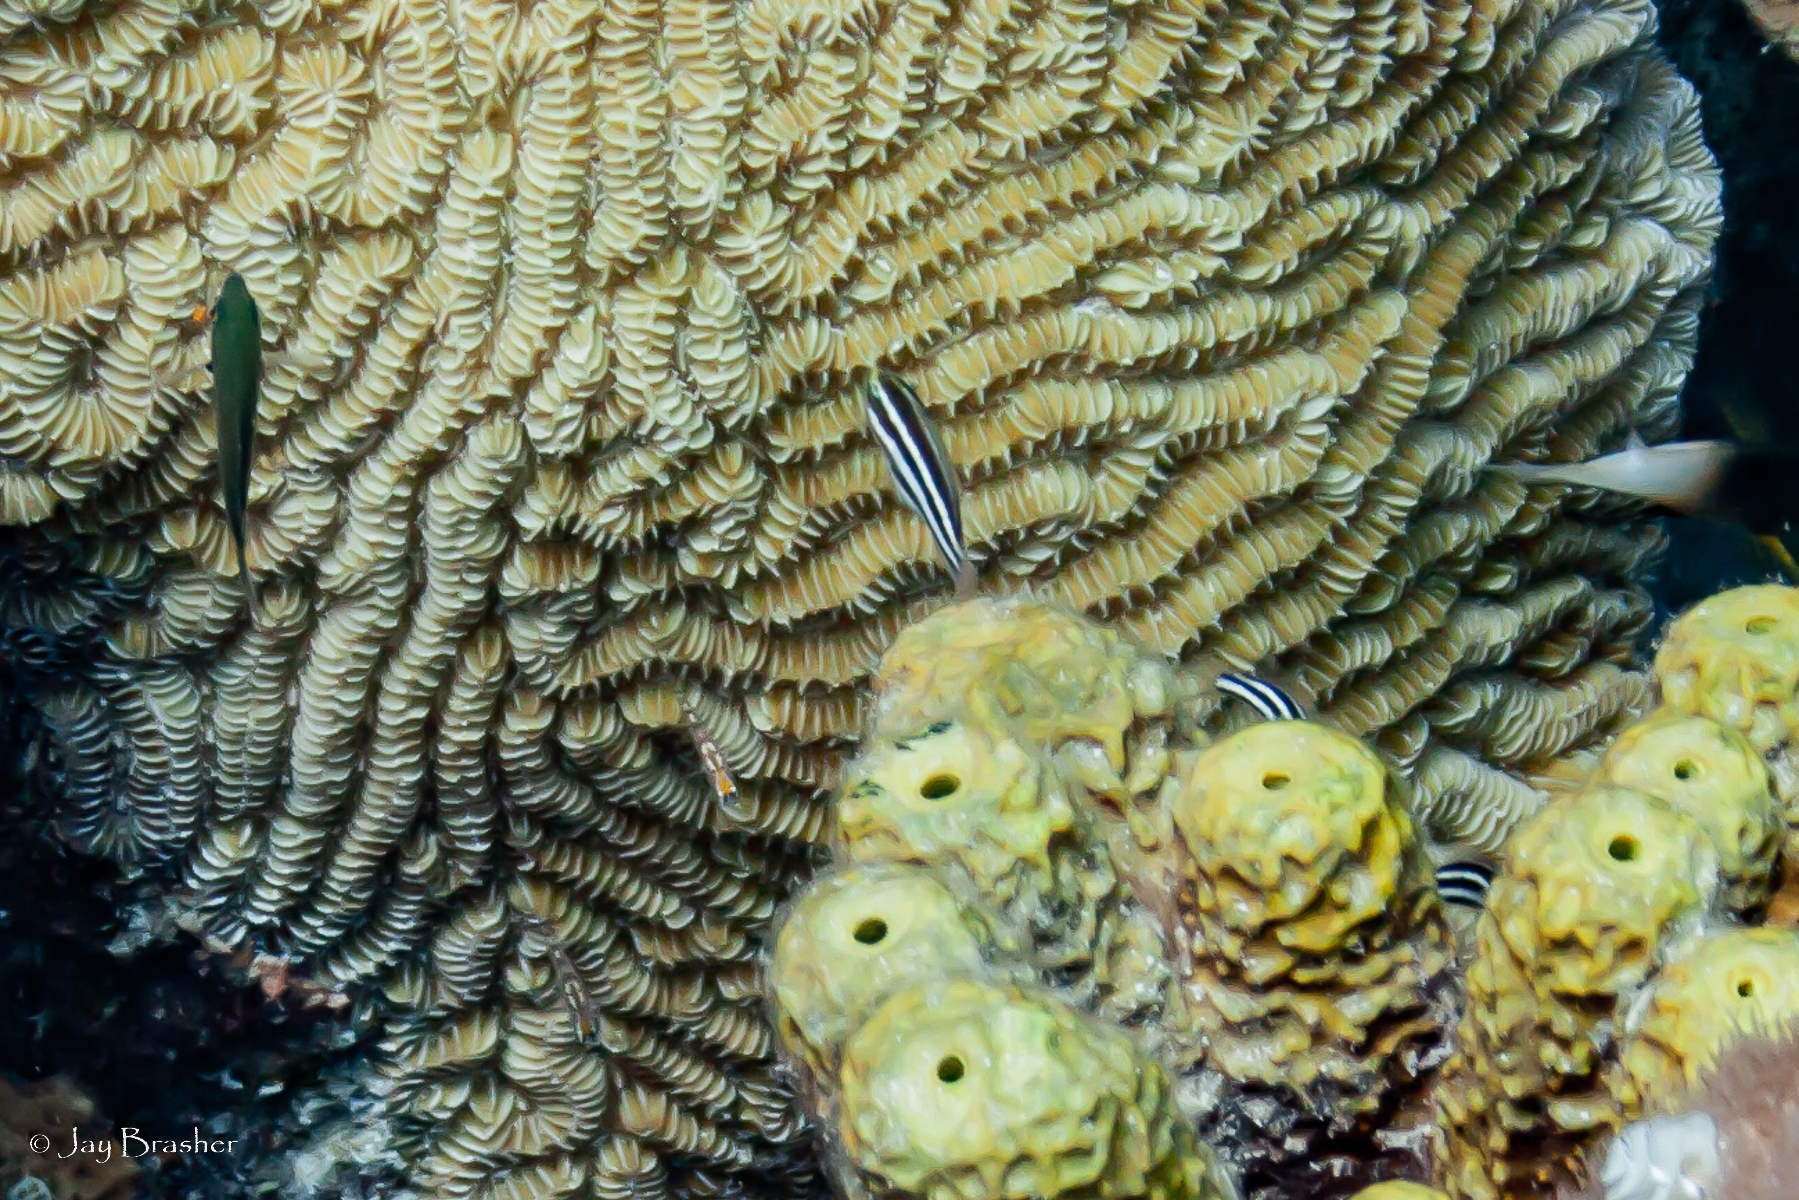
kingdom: Animalia
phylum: Chordata
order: Perciformes
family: Scaridae
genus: Scarus
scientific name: Scarus iseri
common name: Striped parrotfish
